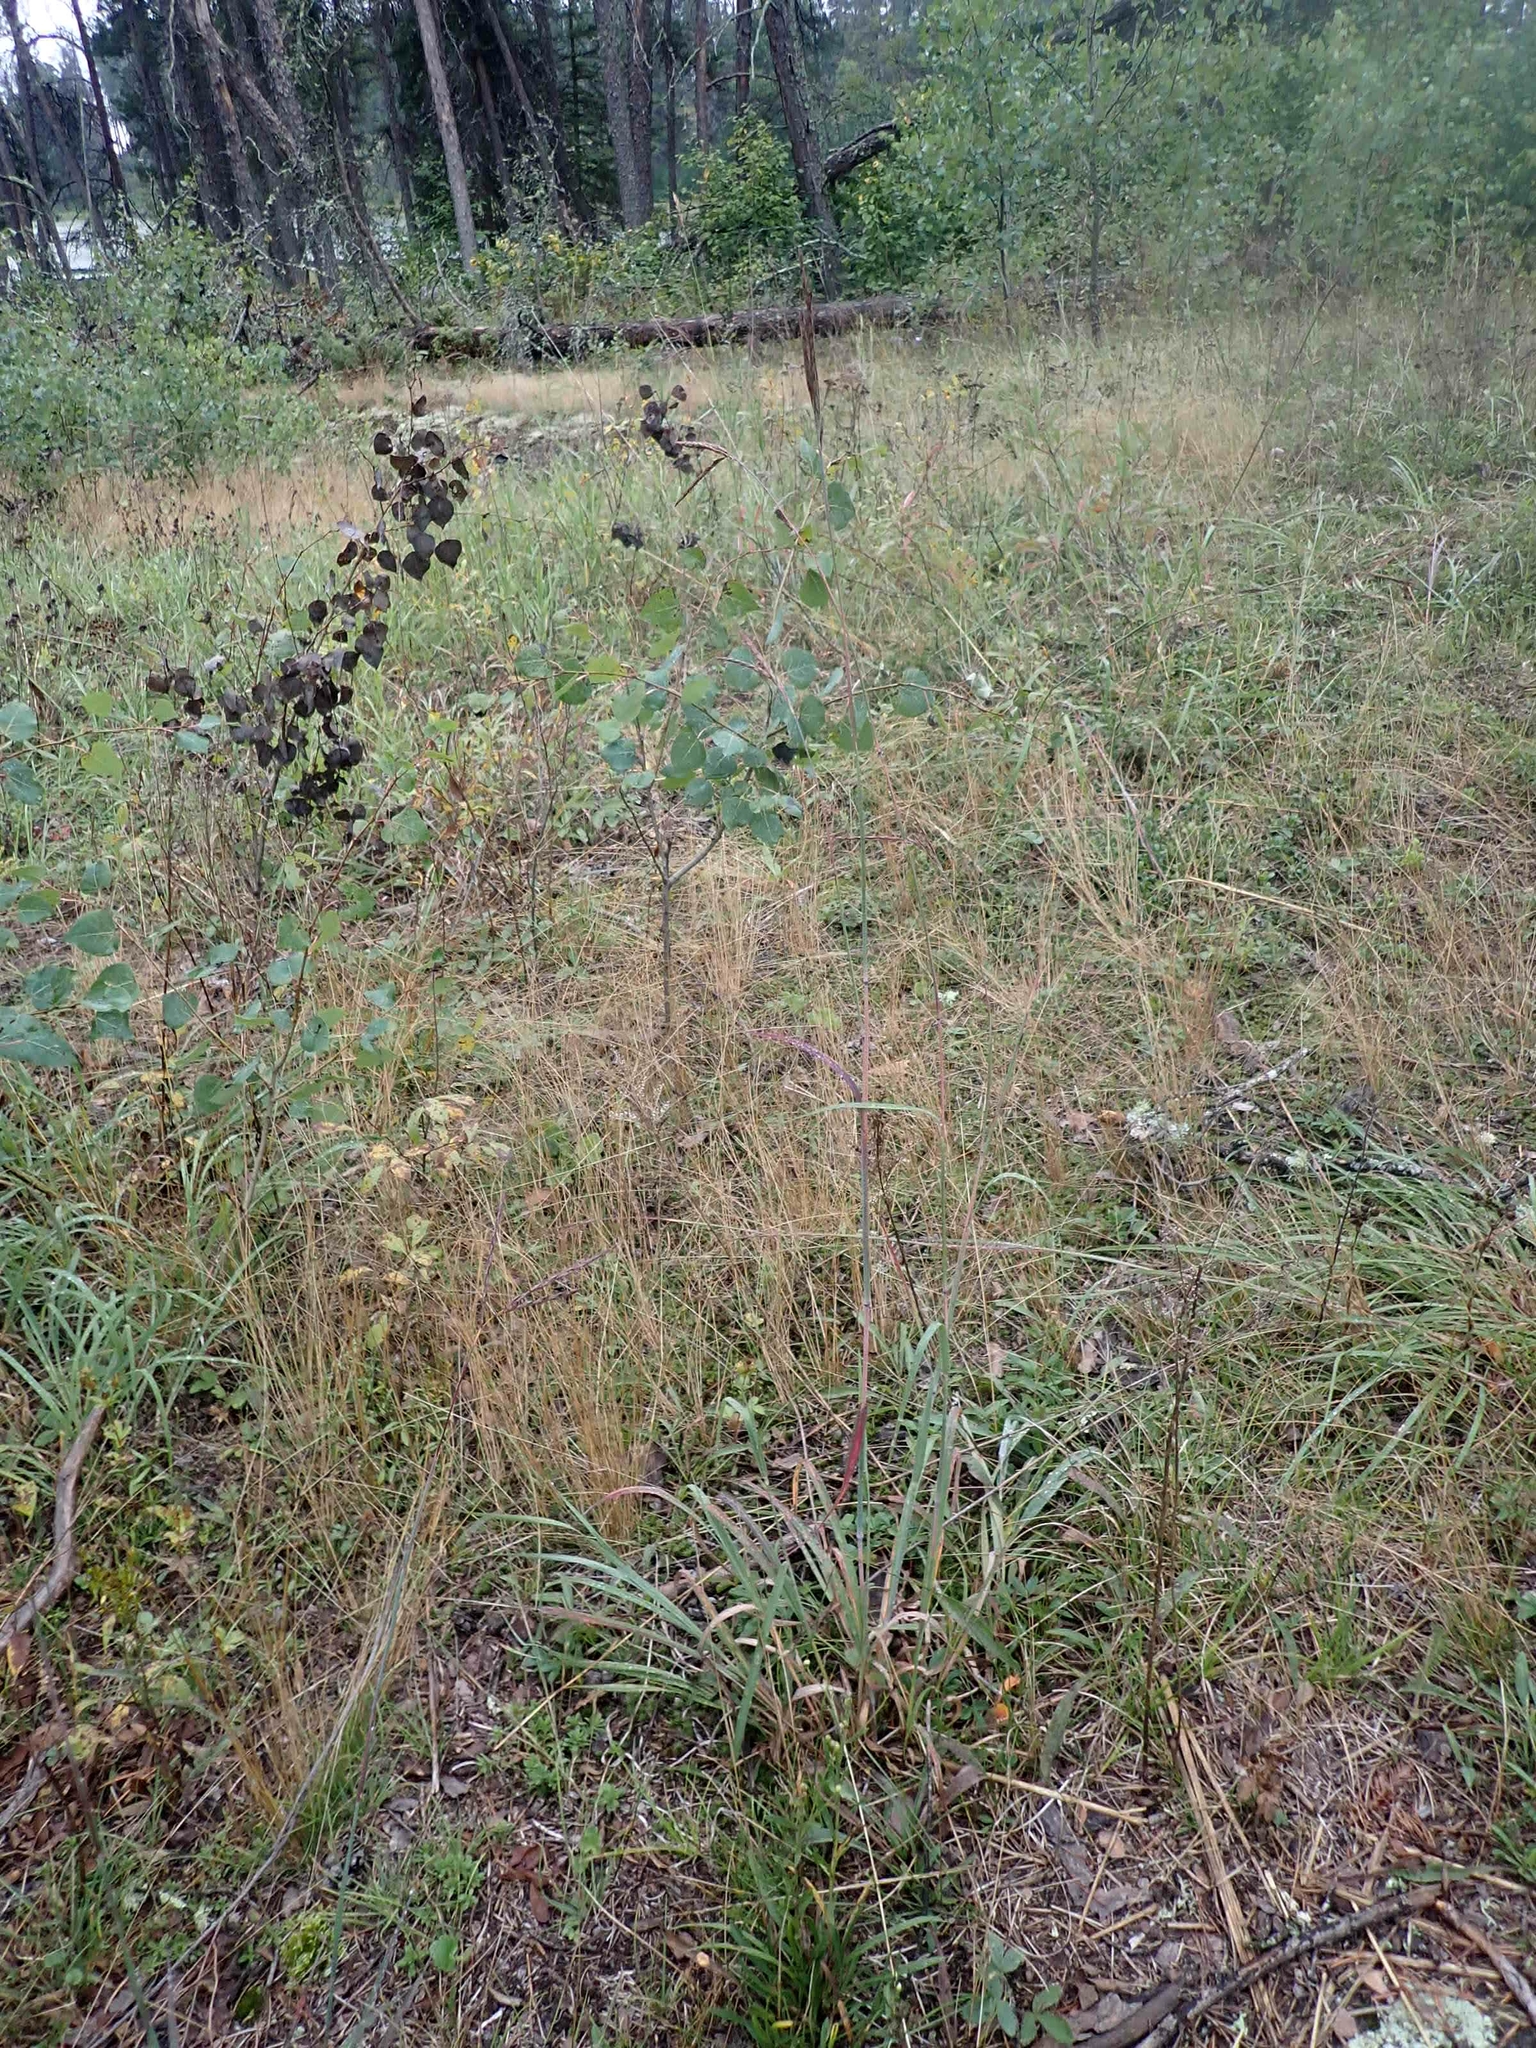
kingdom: Plantae
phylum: Tracheophyta
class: Liliopsida
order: Poales
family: Poaceae
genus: Andropogon
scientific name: Andropogon gerardi
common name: Big bluestem
